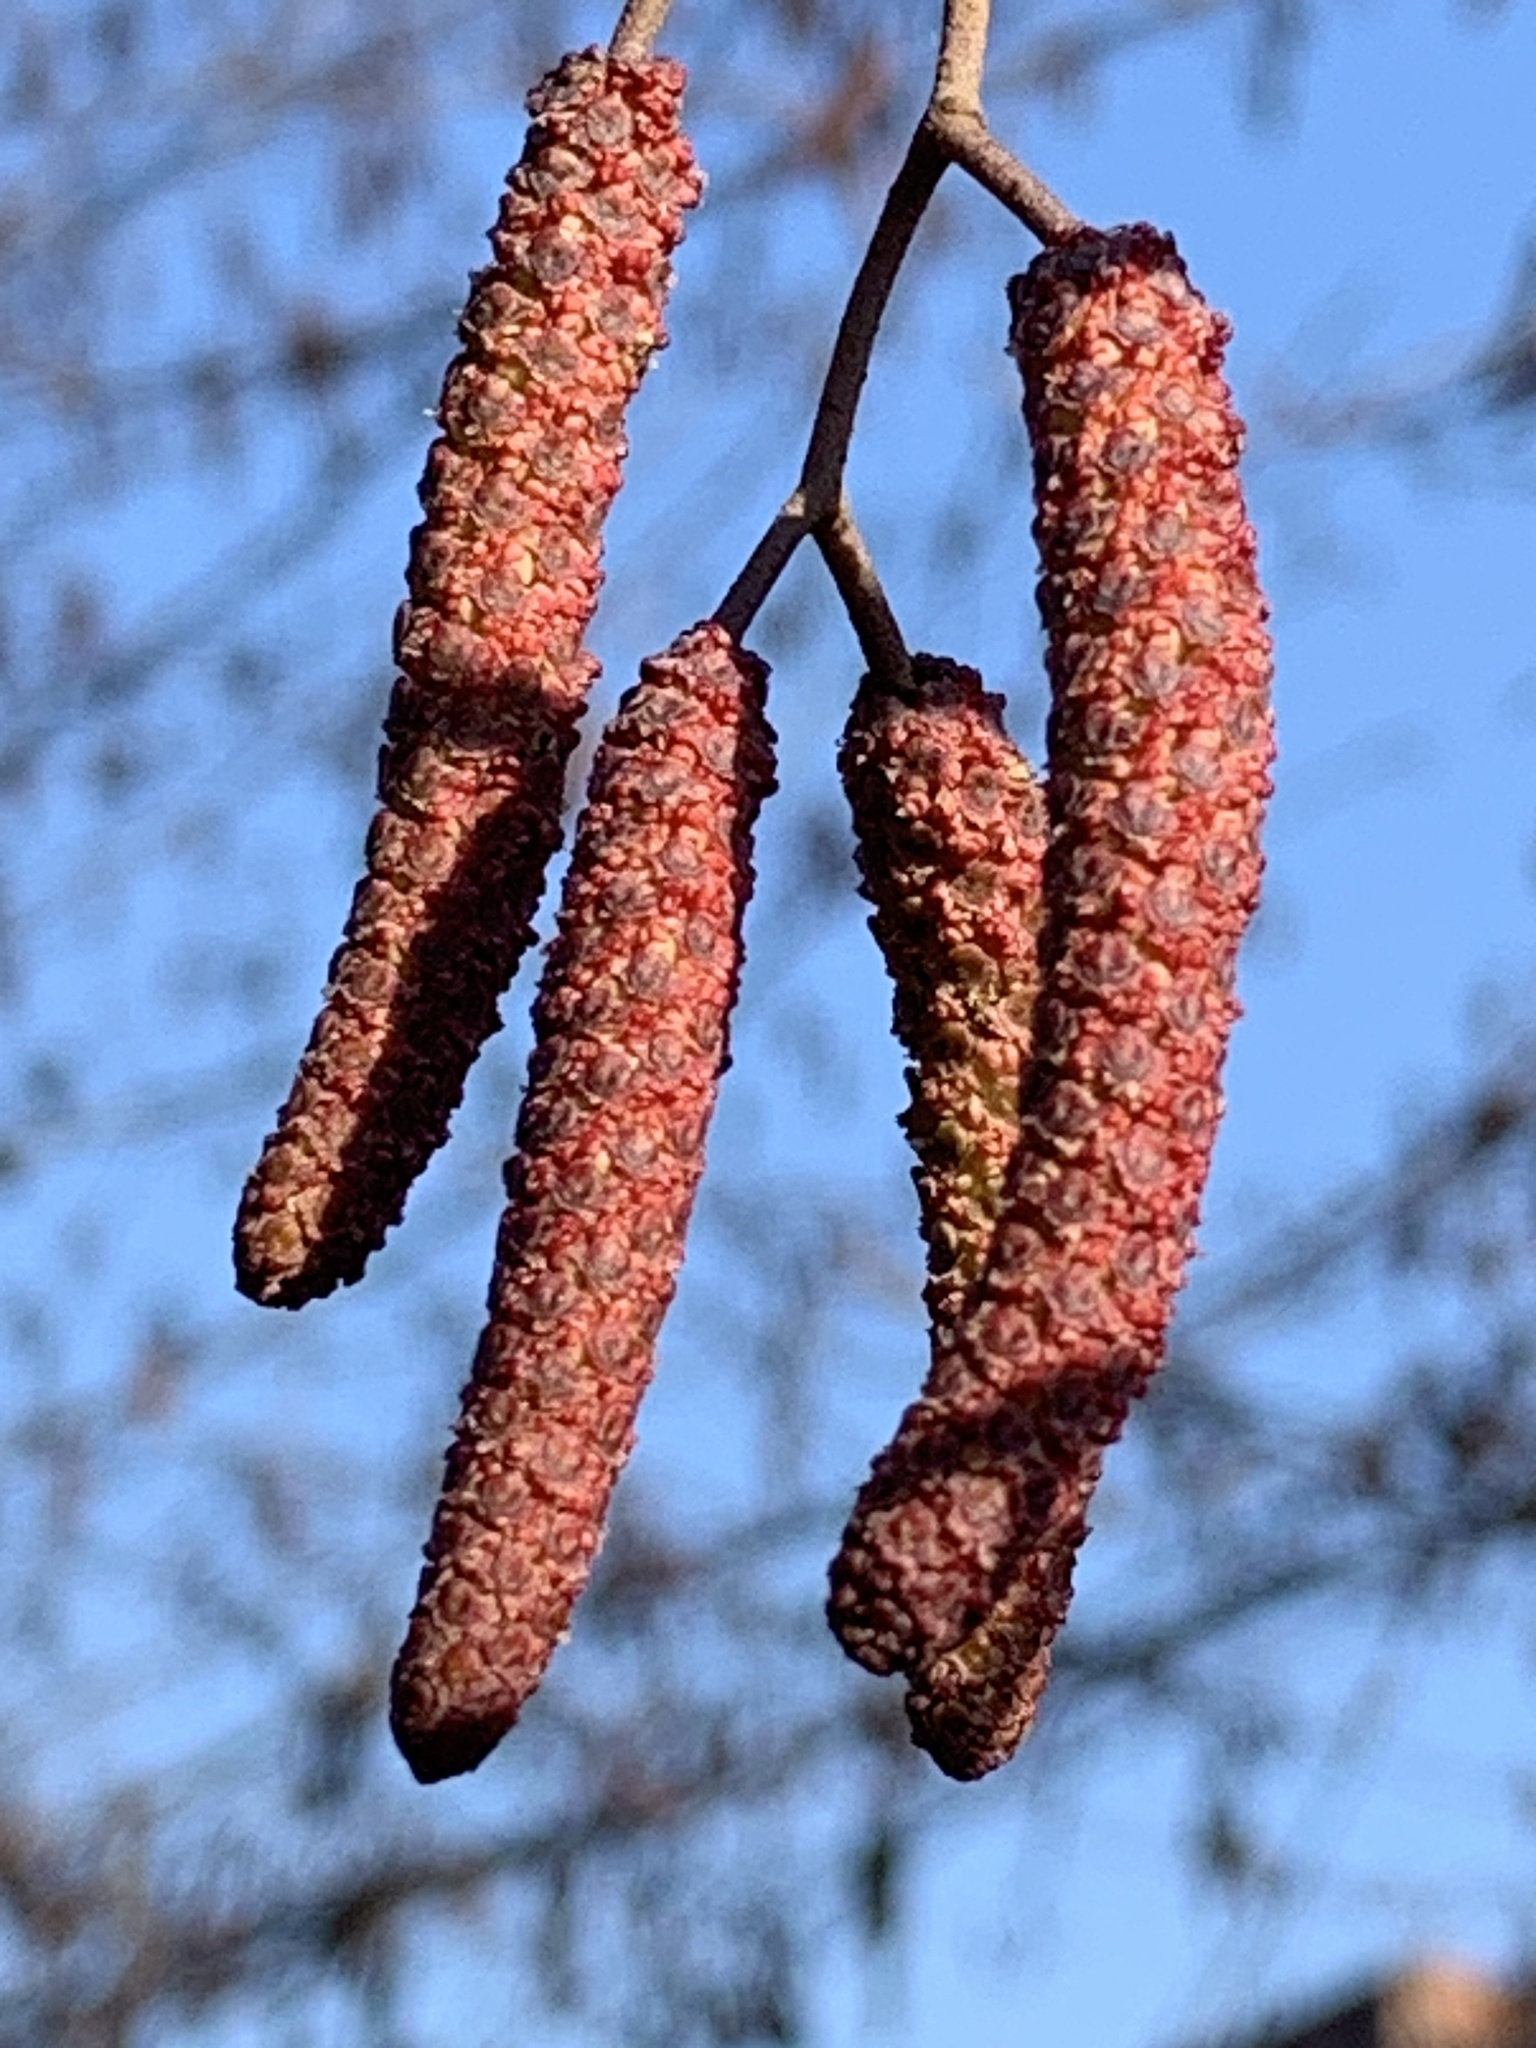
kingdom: Plantae
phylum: Tracheophyta
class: Magnoliopsida
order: Fagales
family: Betulaceae
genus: Alnus
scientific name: Alnus glutinosa
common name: Black alder
